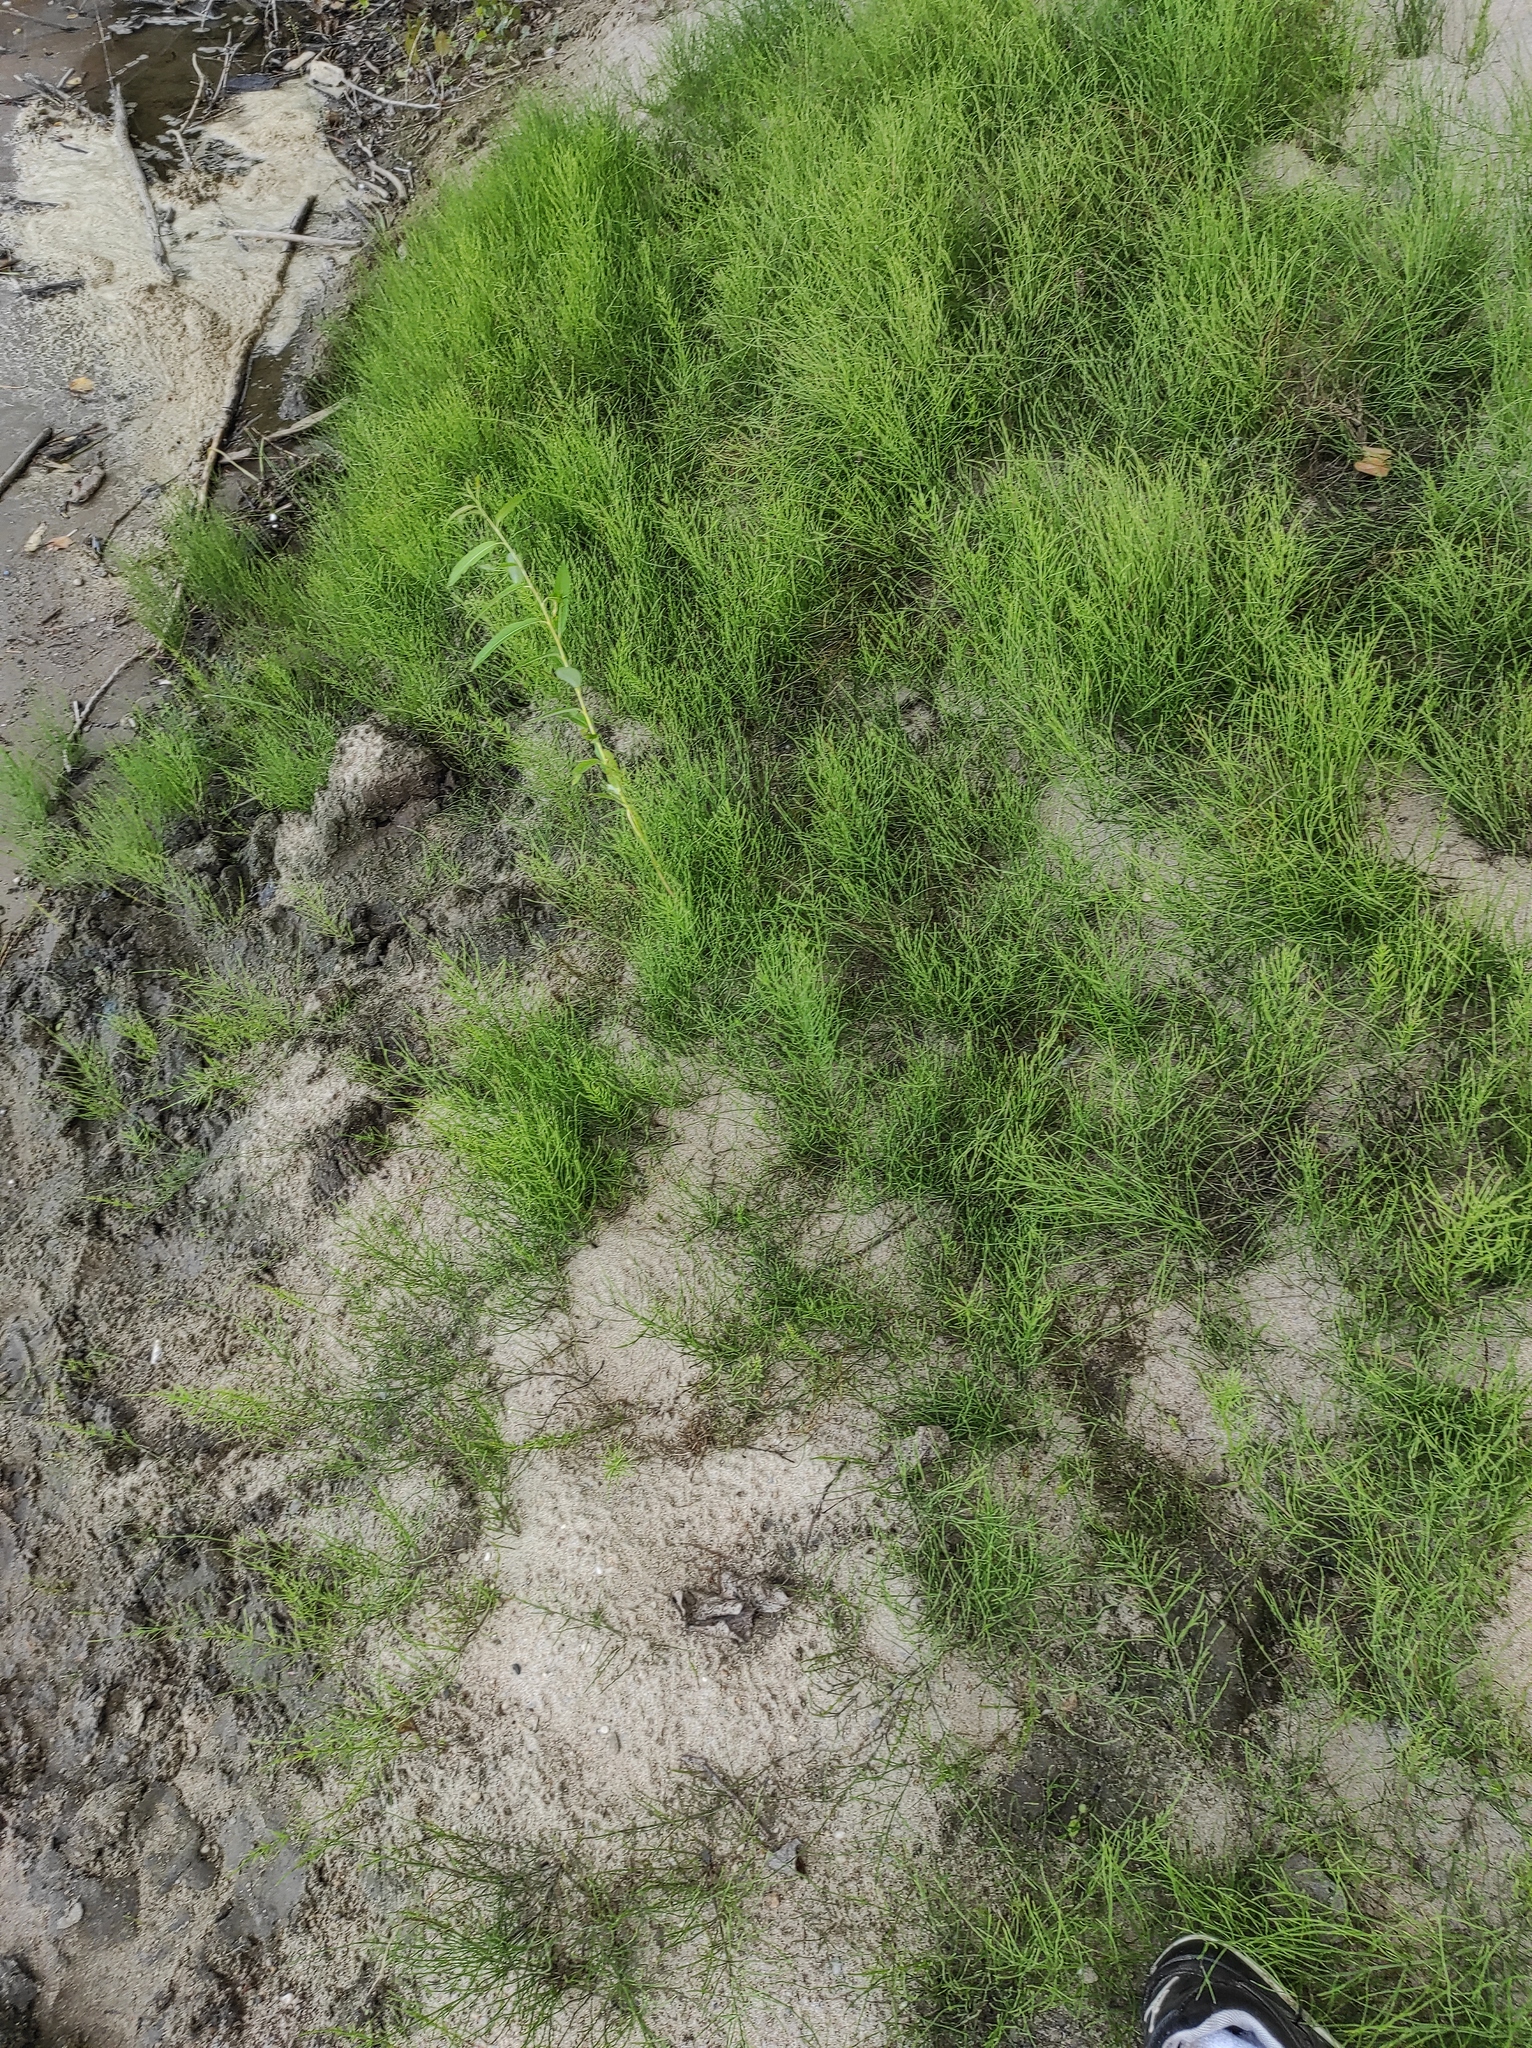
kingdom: Plantae
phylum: Tracheophyta
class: Polypodiopsida
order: Equisetales
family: Equisetaceae
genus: Equisetum
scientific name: Equisetum arvense
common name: Field horsetail
